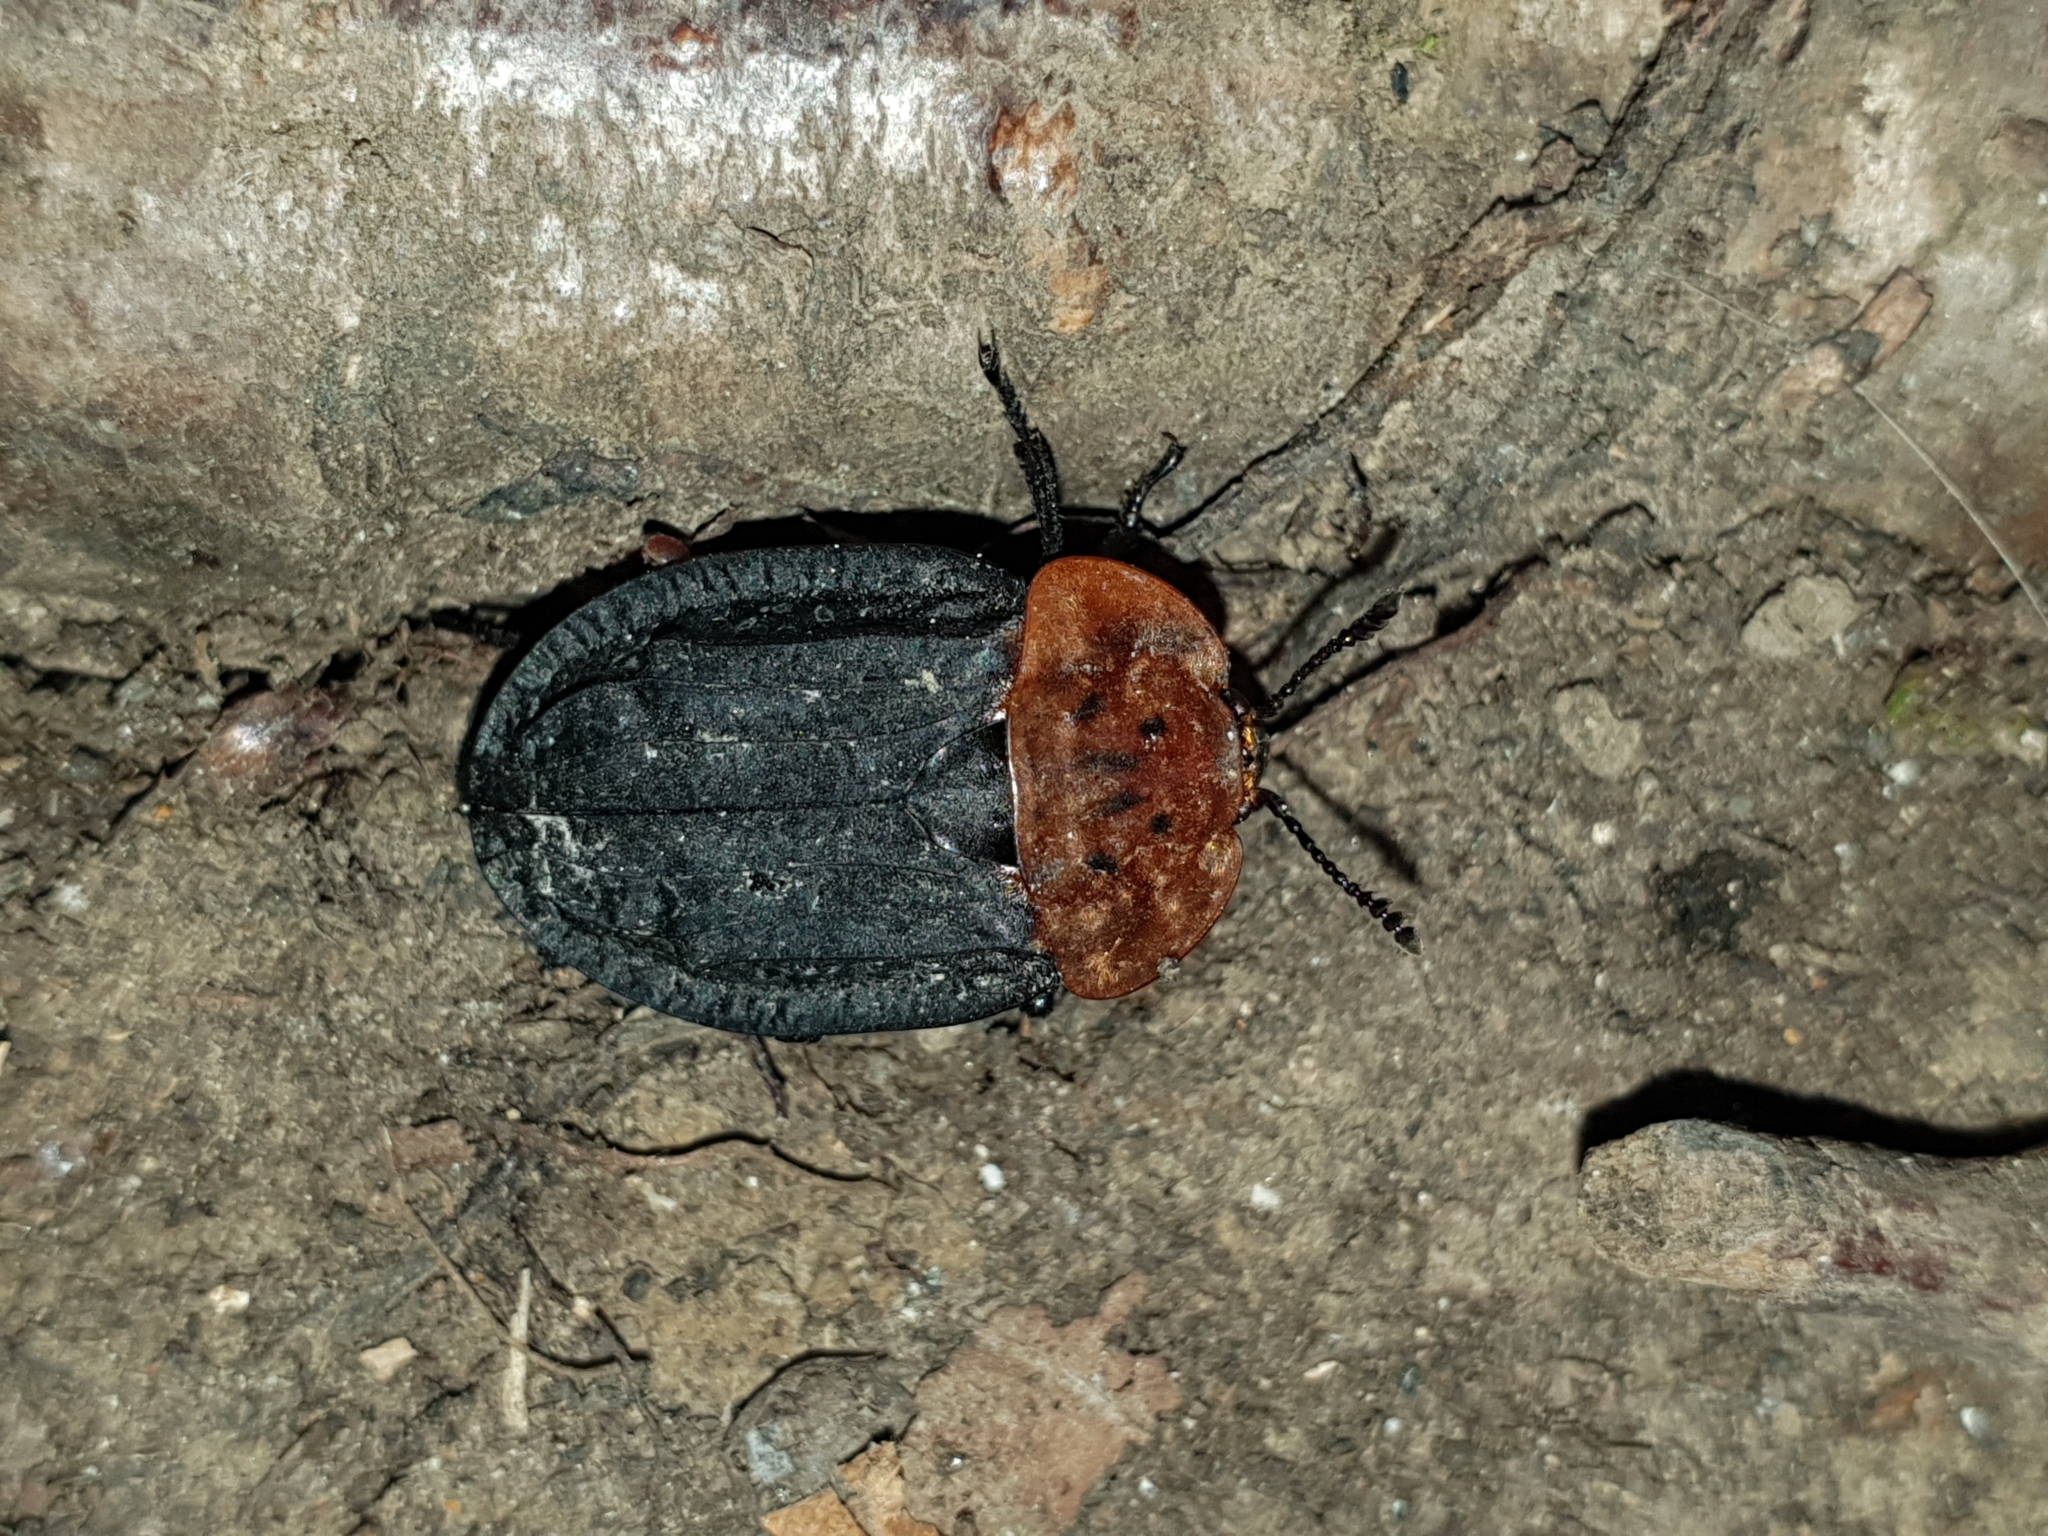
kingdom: Animalia
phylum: Arthropoda
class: Insecta
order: Coleoptera
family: Staphylinidae
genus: Oiceoptoma
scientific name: Oiceoptoma thoracicum
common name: Red-breasted carrion beetle
